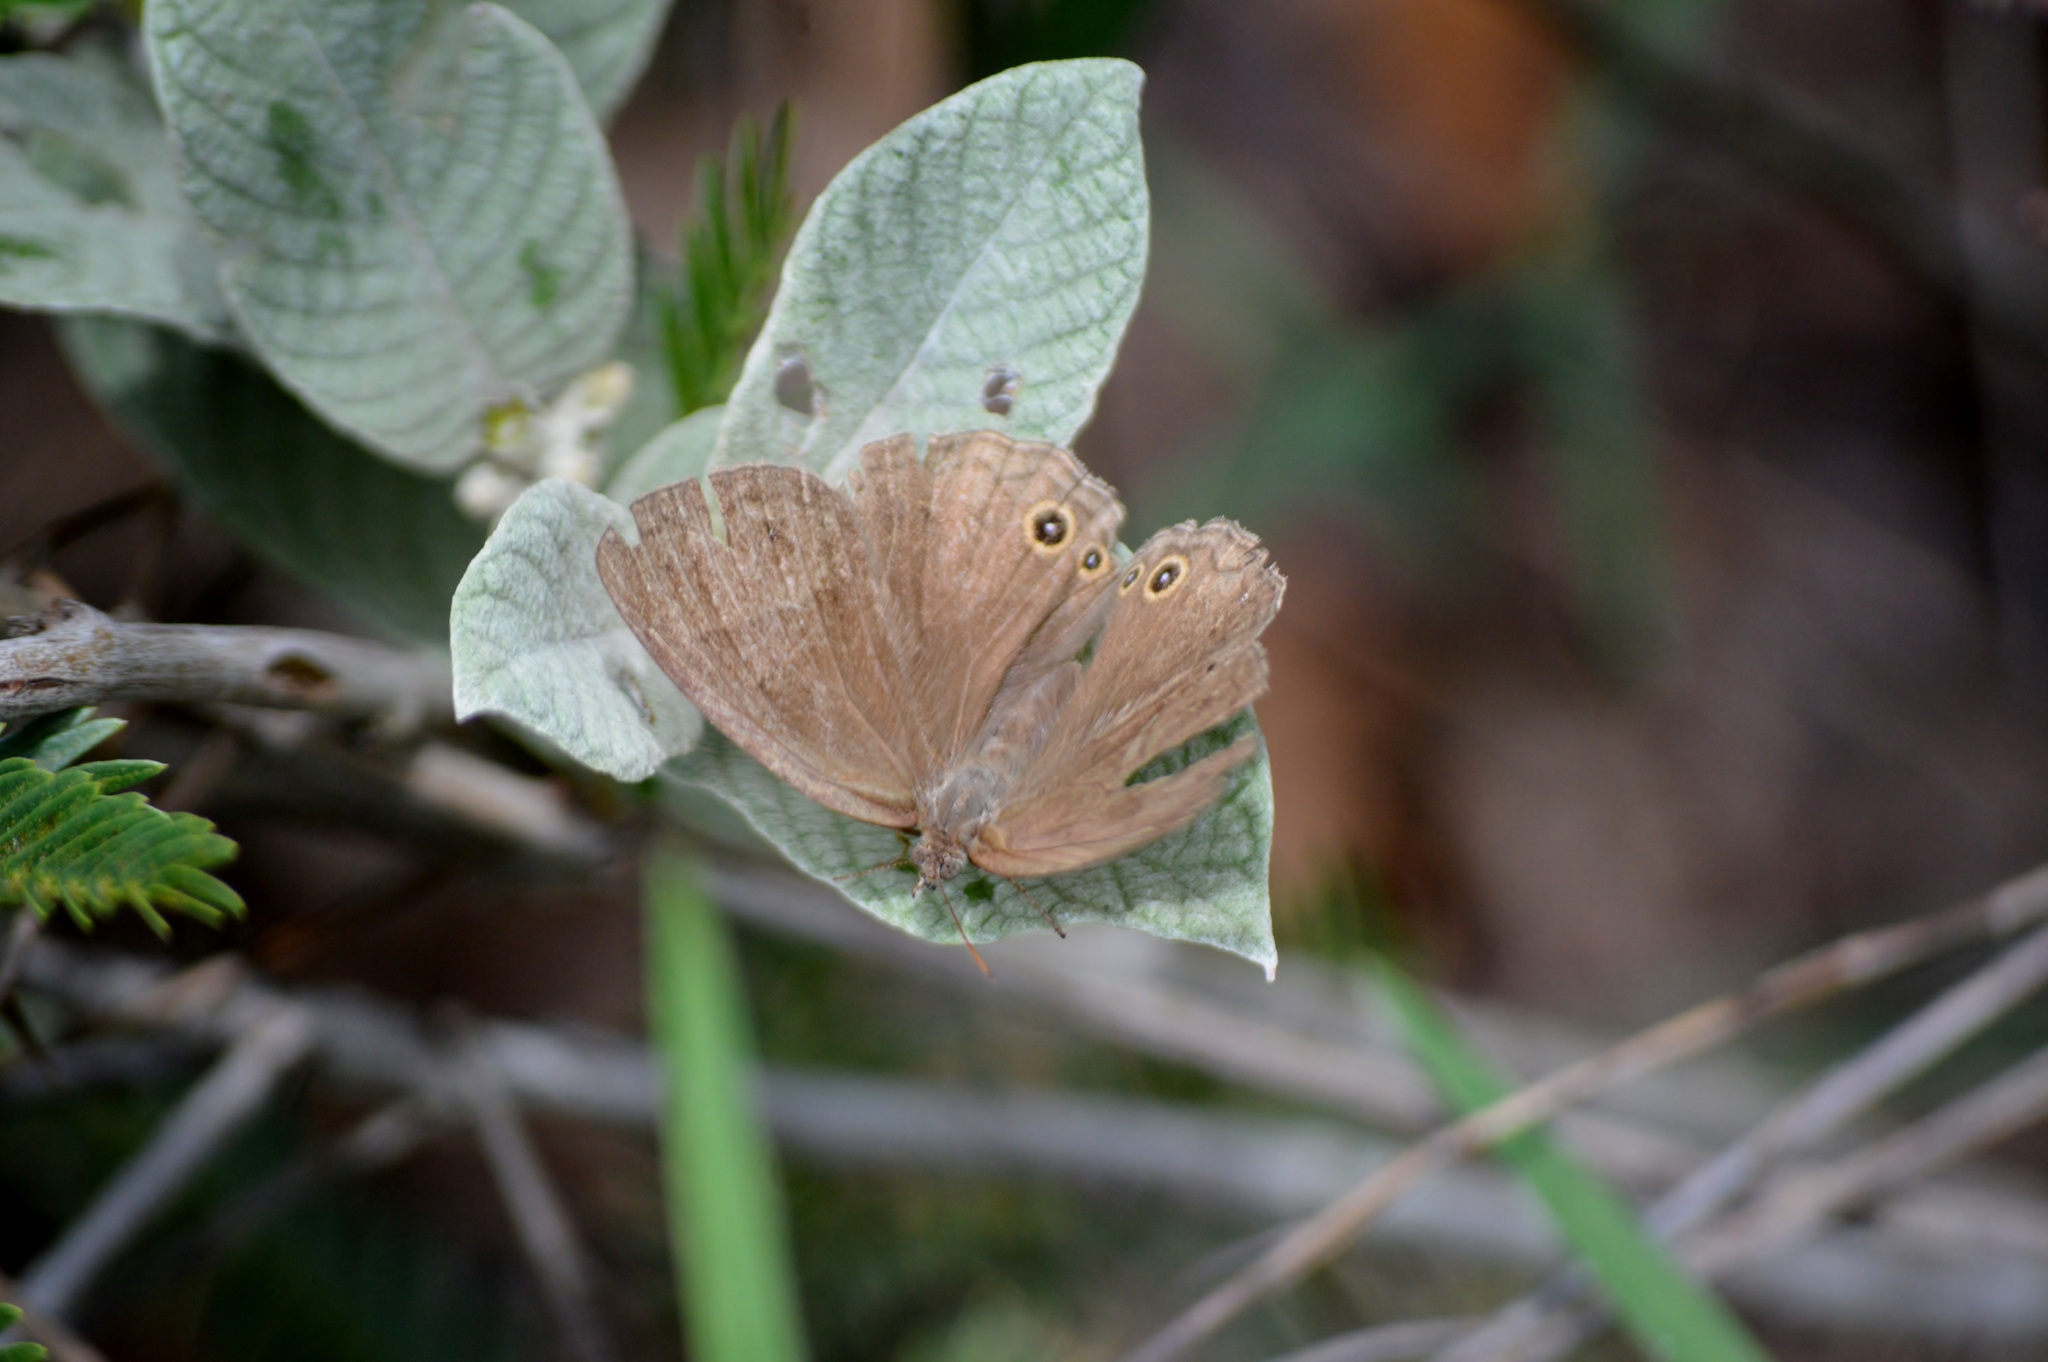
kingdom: Animalia
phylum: Arthropoda
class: Insecta
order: Lepidoptera
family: Nymphalidae
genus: Yphthimoides
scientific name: Yphthimoides patricia
